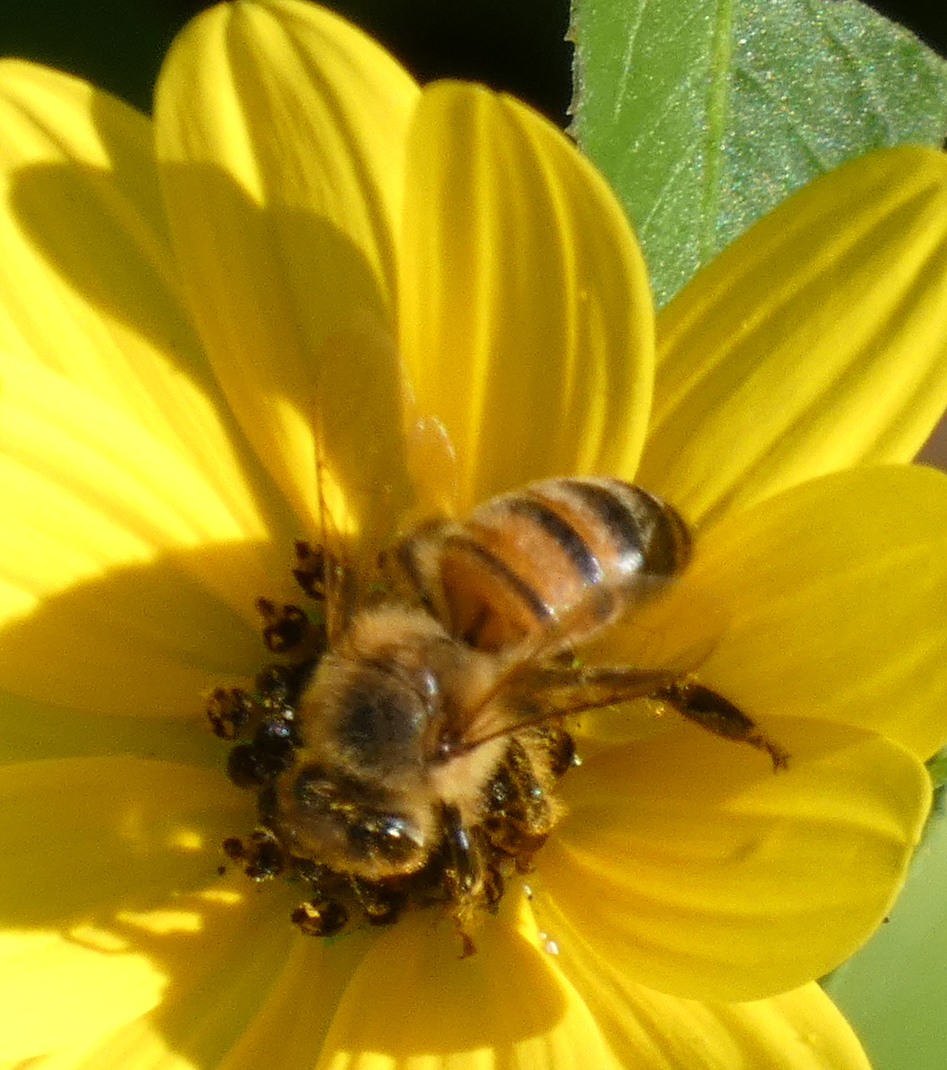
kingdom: Animalia
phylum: Arthropoda
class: Insecta
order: Hymenoptera
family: Apidae
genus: Apis
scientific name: Apis mellifera
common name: Honey bee
